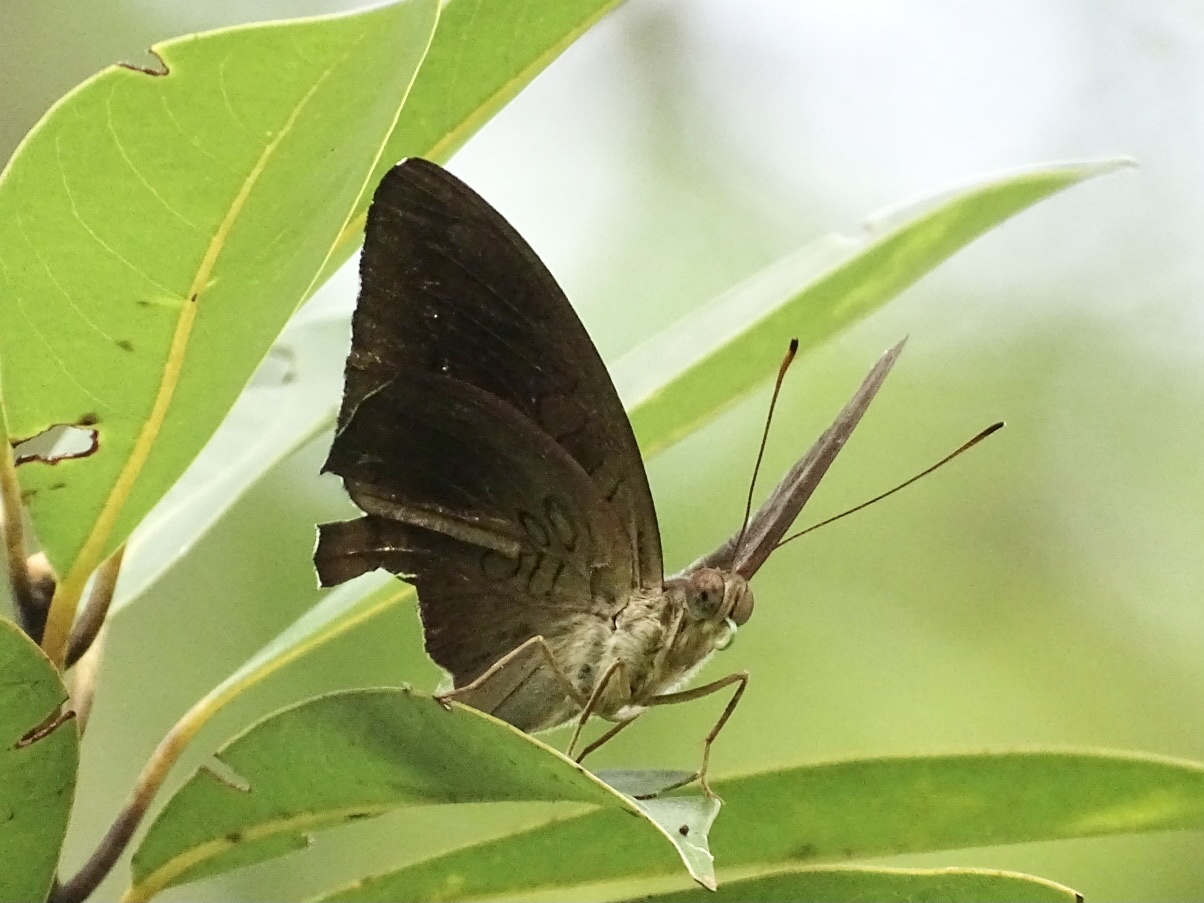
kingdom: Animalia
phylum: Arthropoda
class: Insecta
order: Lepidoptera
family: Nymphalidae
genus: Euthalia
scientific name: Euthalia aconthea
